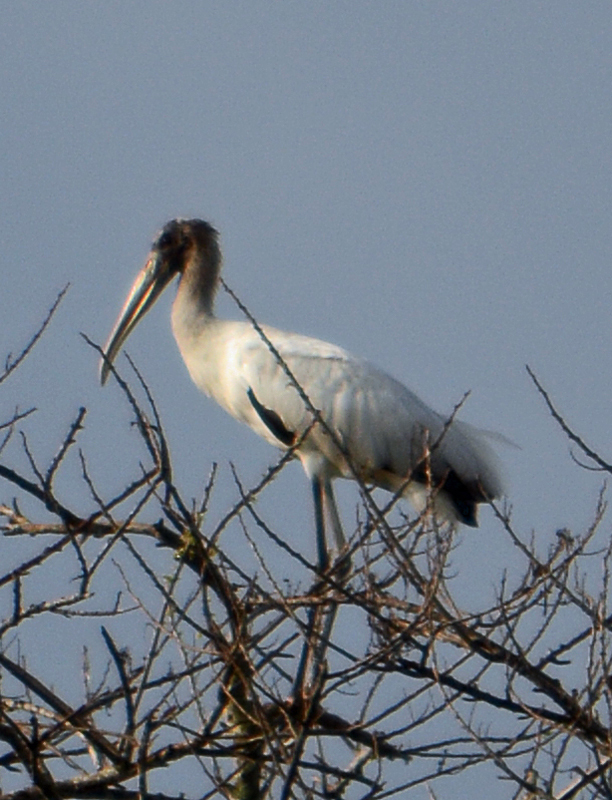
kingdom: Animalia
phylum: Chordata
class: Aves
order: Ciconiiformes
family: Ciconiidae
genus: Mycteria
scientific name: Mycteria americana
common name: Wood stork
